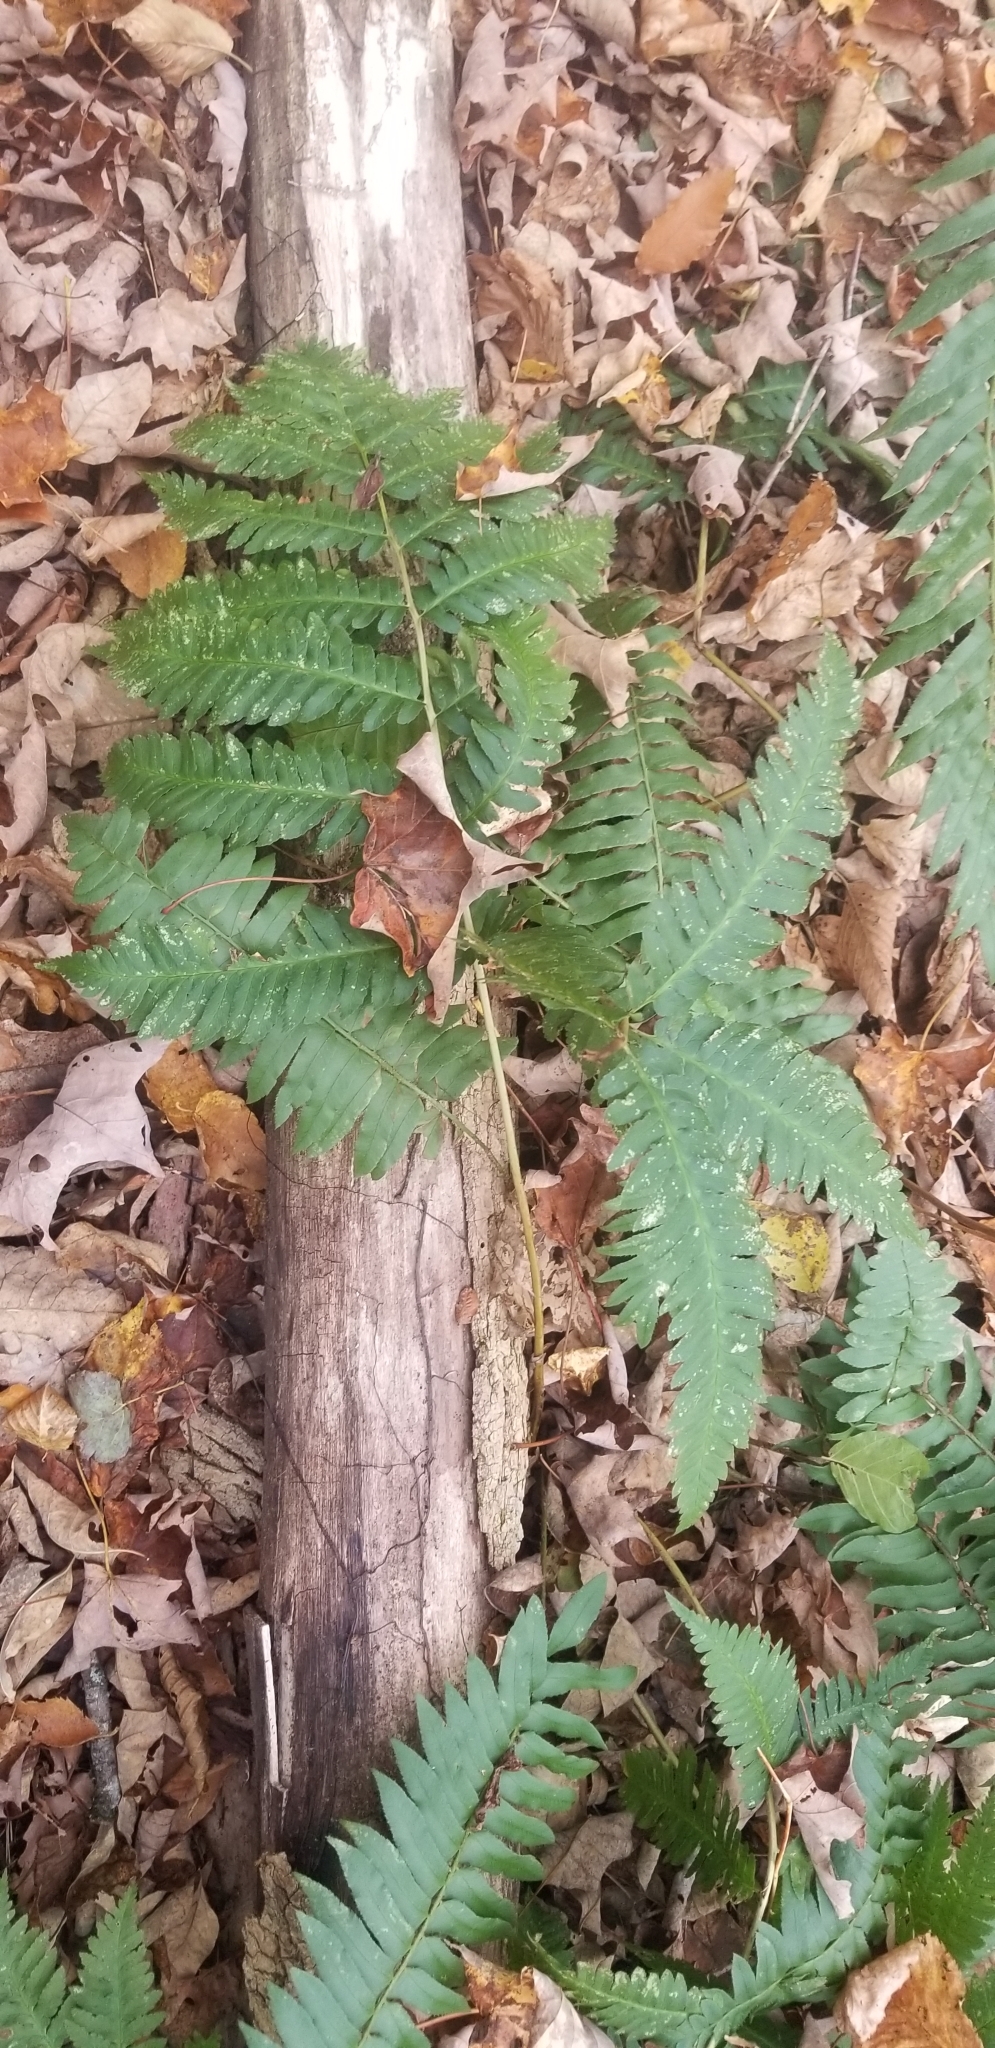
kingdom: Plantae
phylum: Tracheophyta
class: Polypodiopsida
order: Polypodiales
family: Dryopteridaceae
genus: Dryopteris
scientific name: Dryopteris goldieana
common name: Goldie's fern
